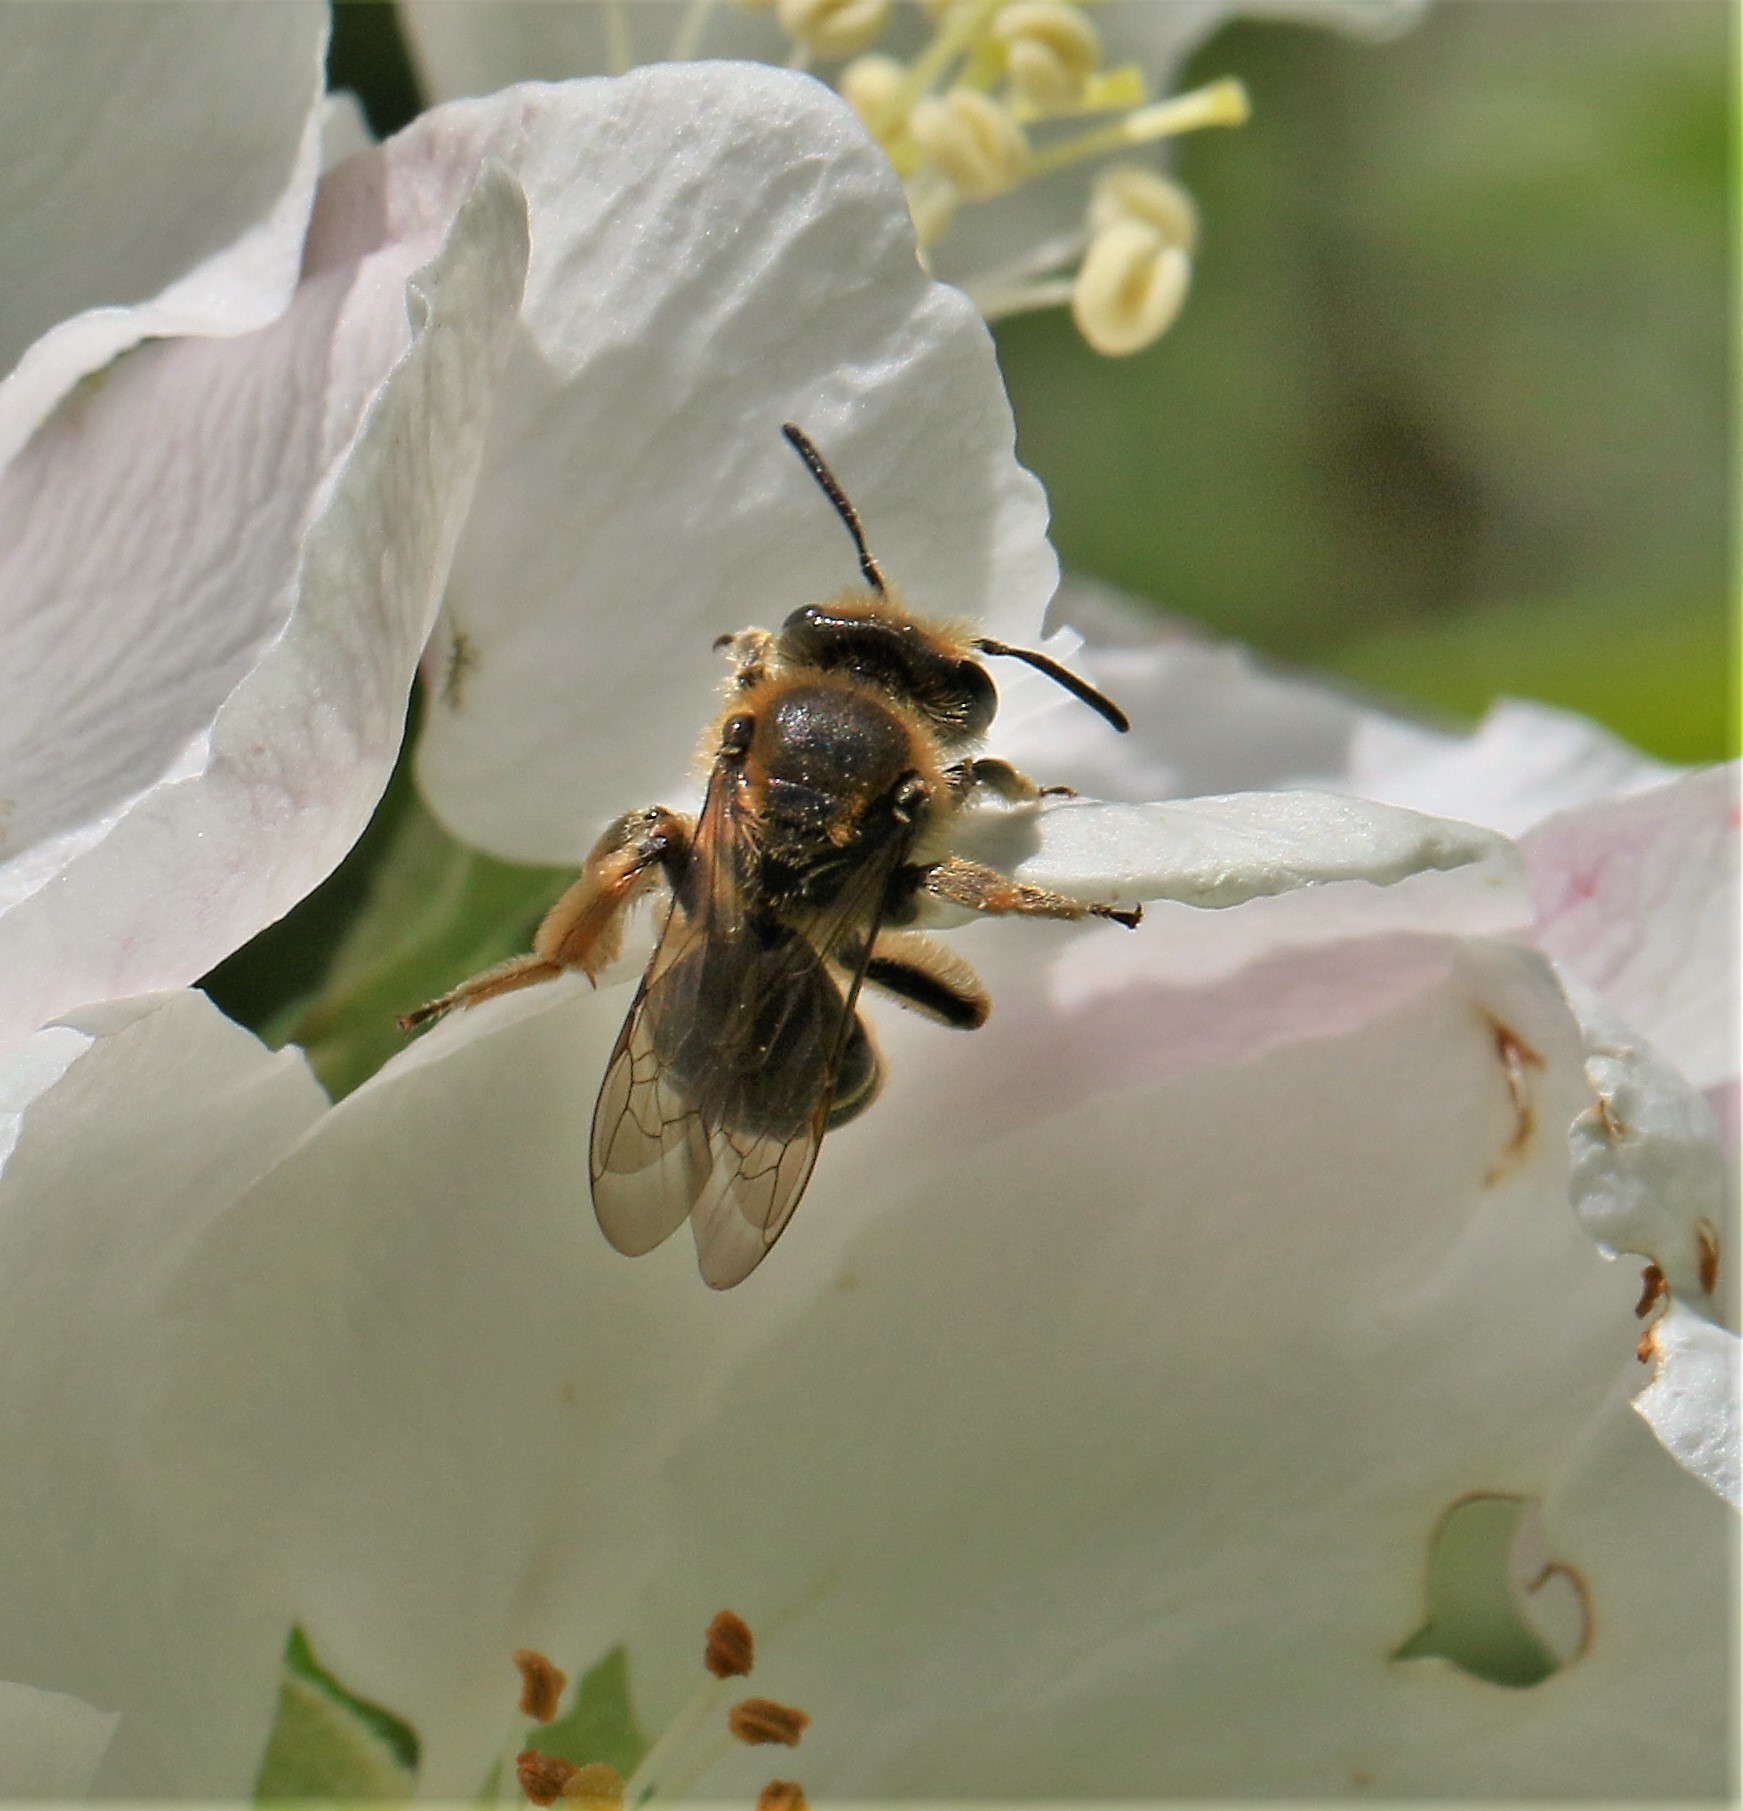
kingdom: Animalia
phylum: Arthropoda
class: Insecta
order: Hymenoptera
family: Andrenidae
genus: Andrena
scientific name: Andrena
